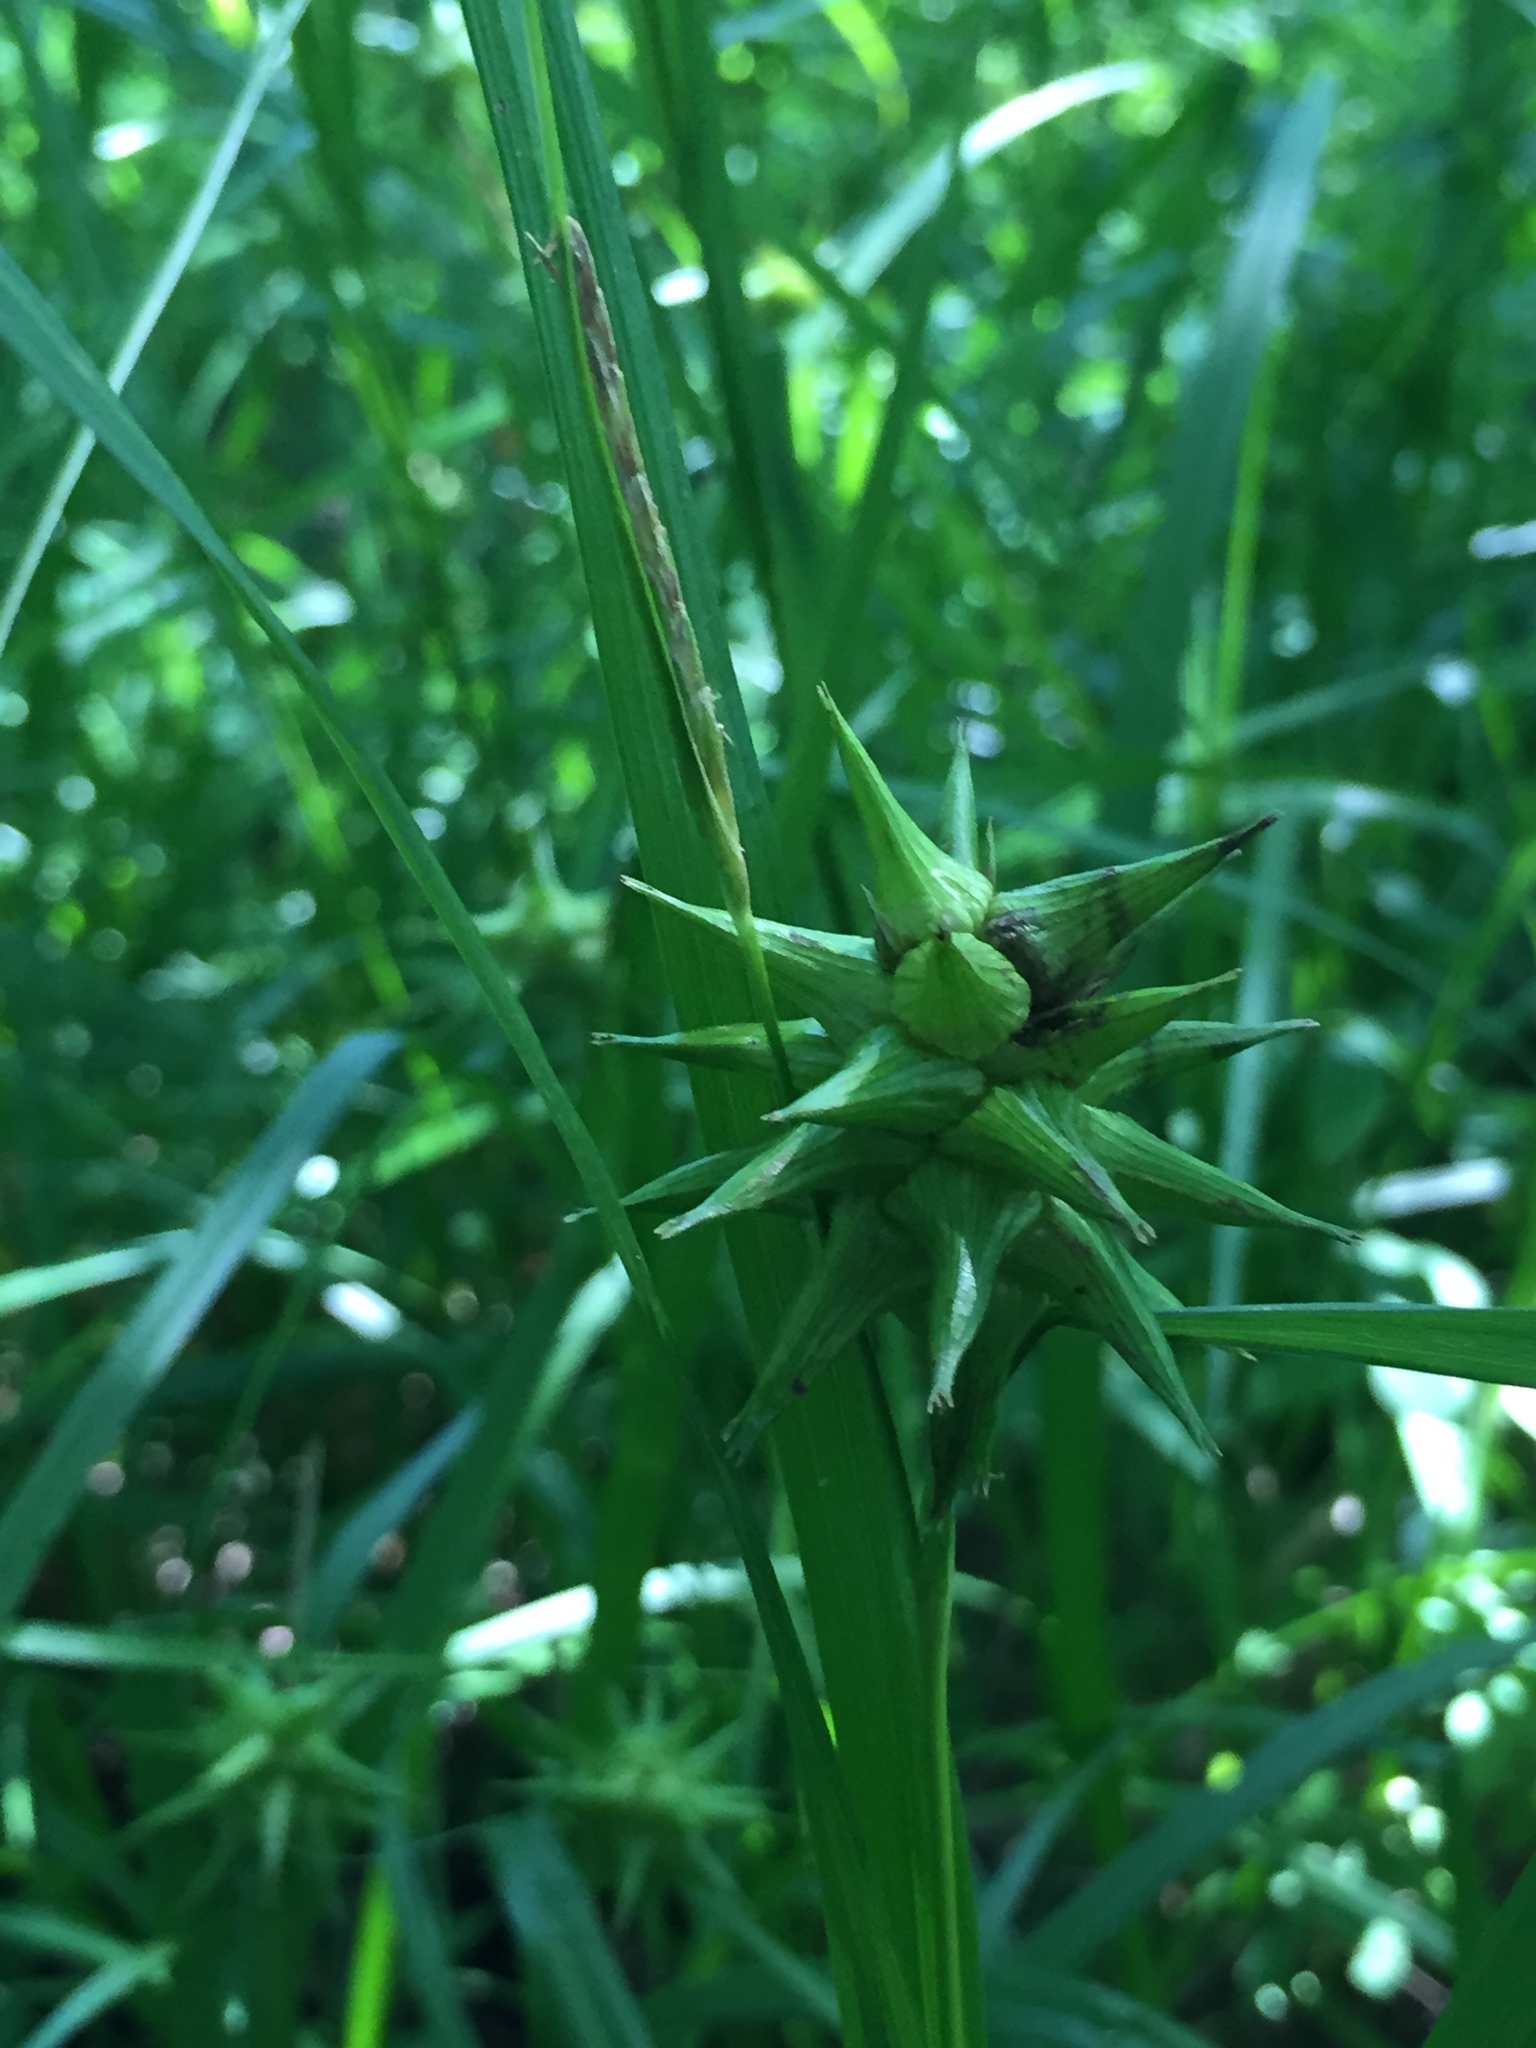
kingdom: Plantae
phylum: Tracheophyta
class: Liliopsida
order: Poales
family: Cyperaceae
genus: Carex
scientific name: Carex grayi
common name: Asa gray's sedge
